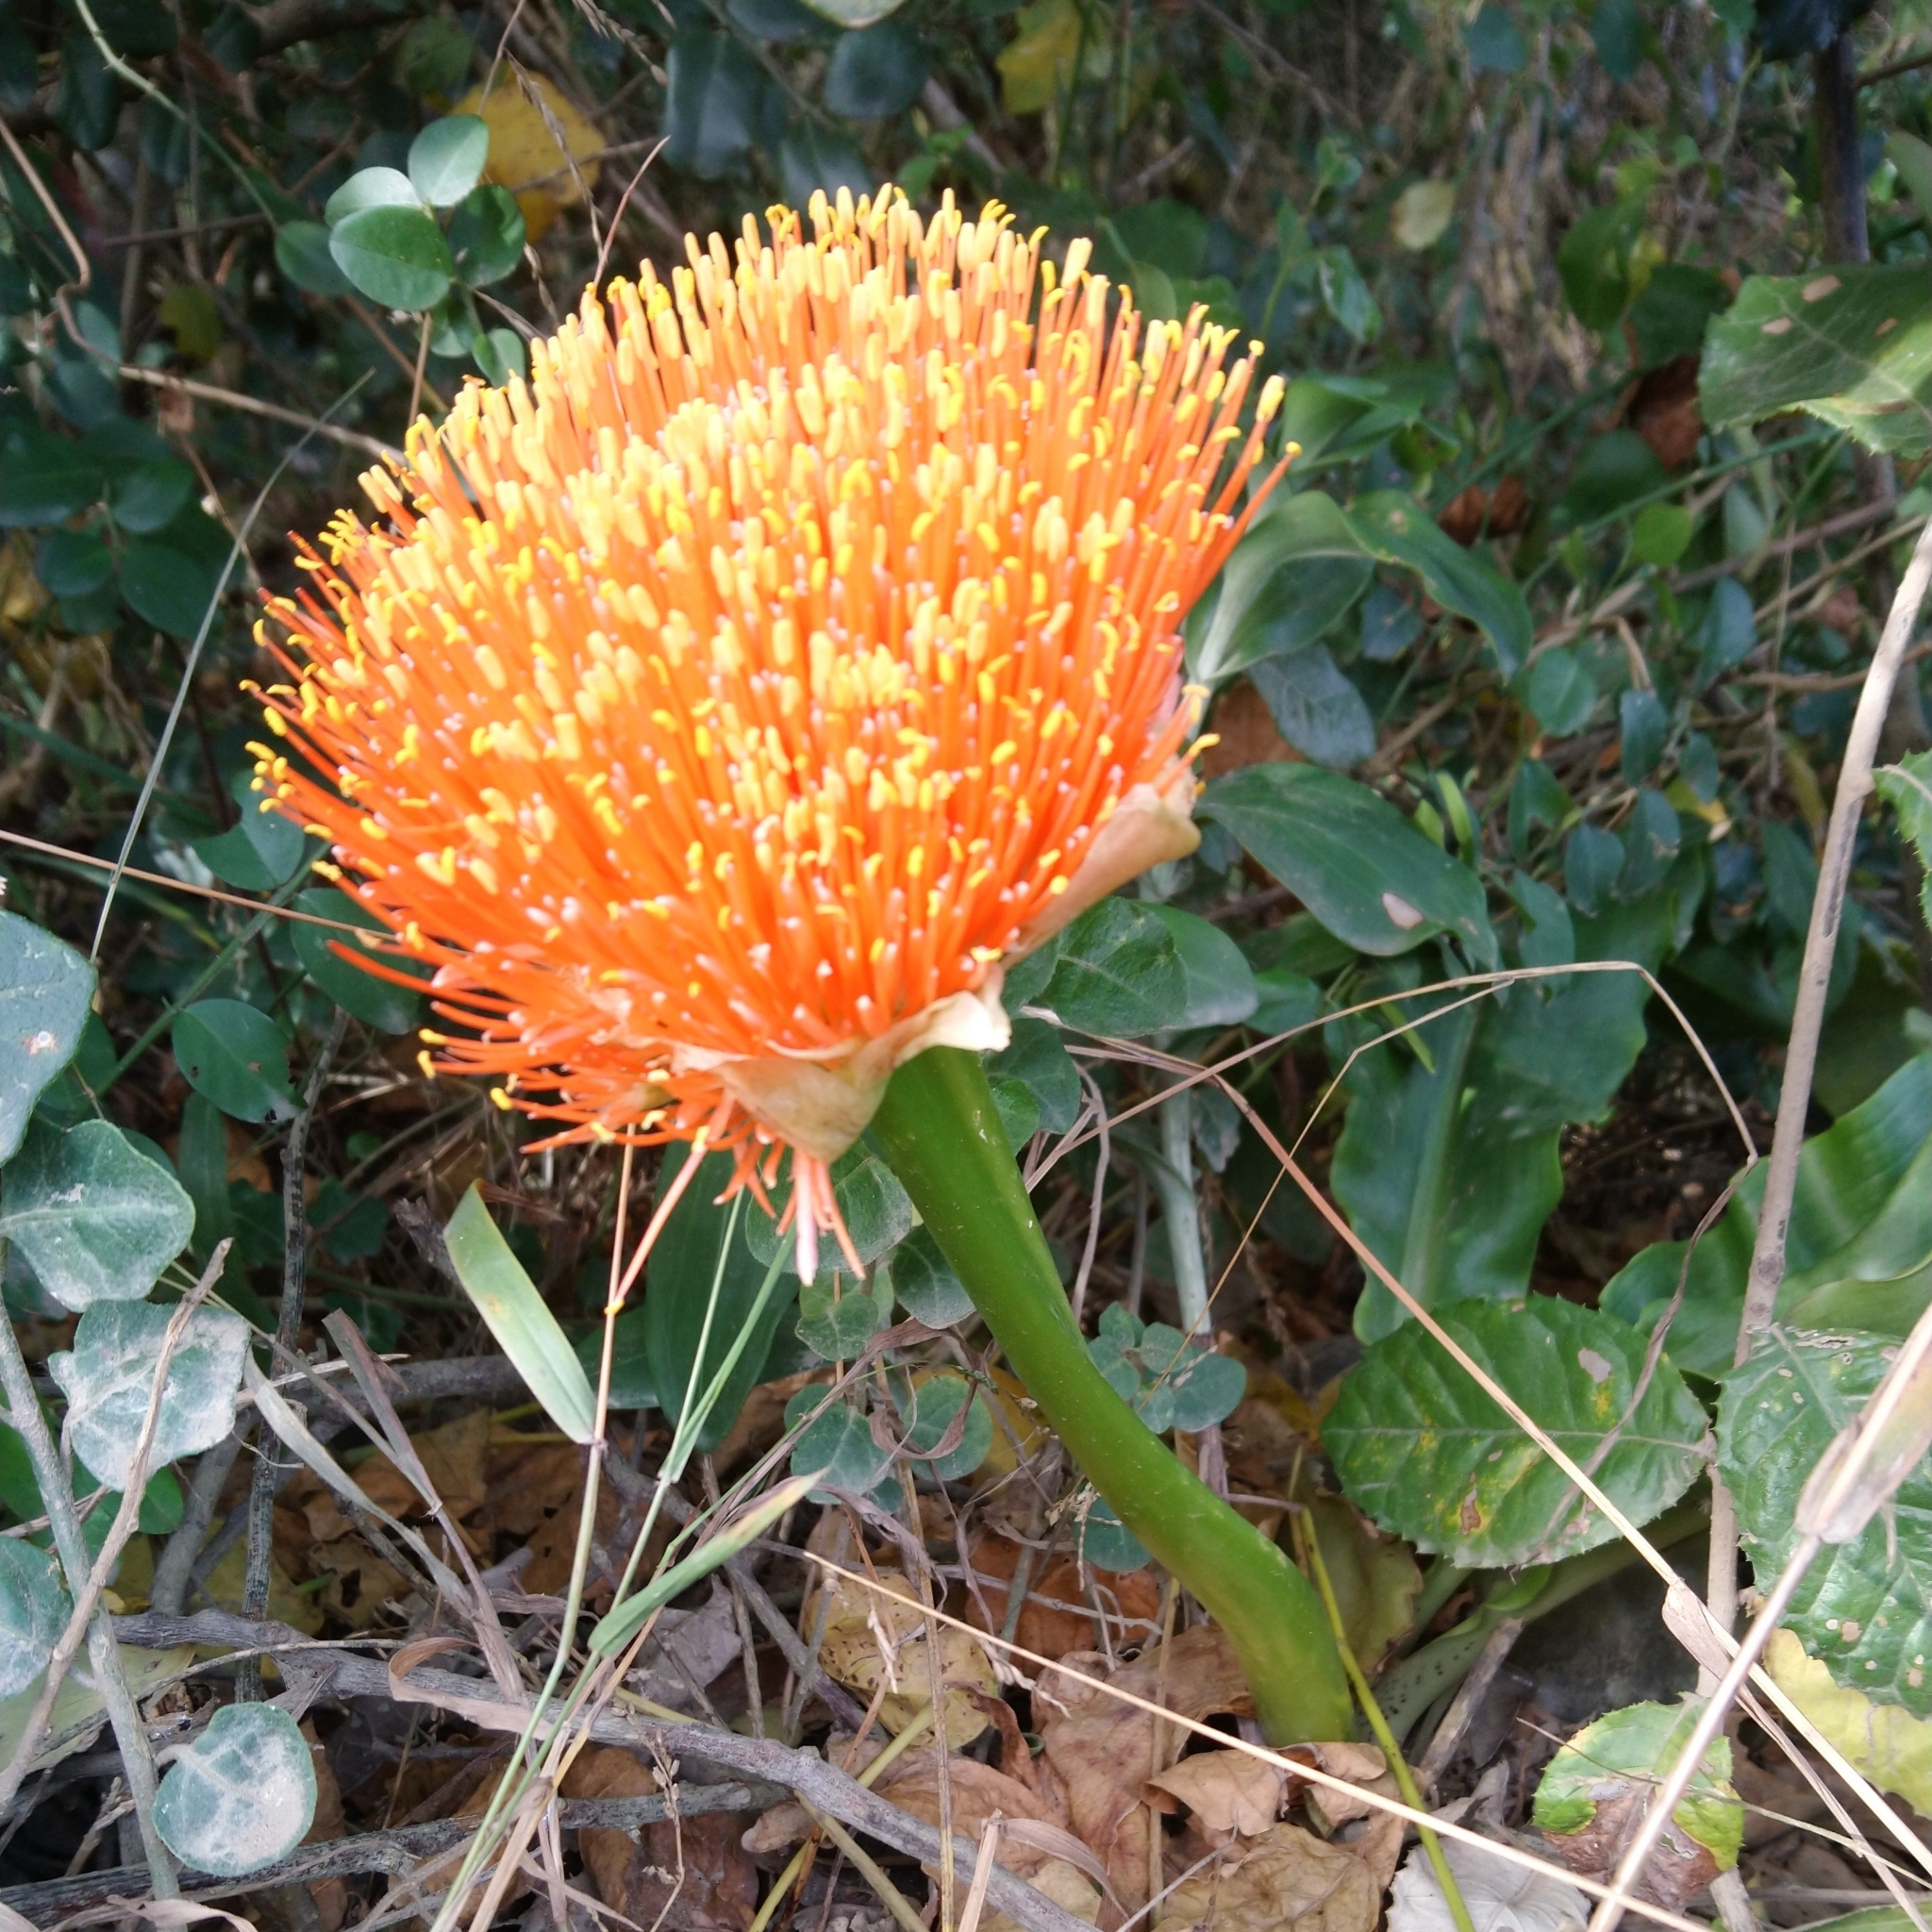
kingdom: Plantae
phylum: Tracheophyta
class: Liliopsida
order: Asparagales
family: Amaryllidaceae
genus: Scadoxus
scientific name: Scadoxus puniceus
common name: Royal-paintbrush
